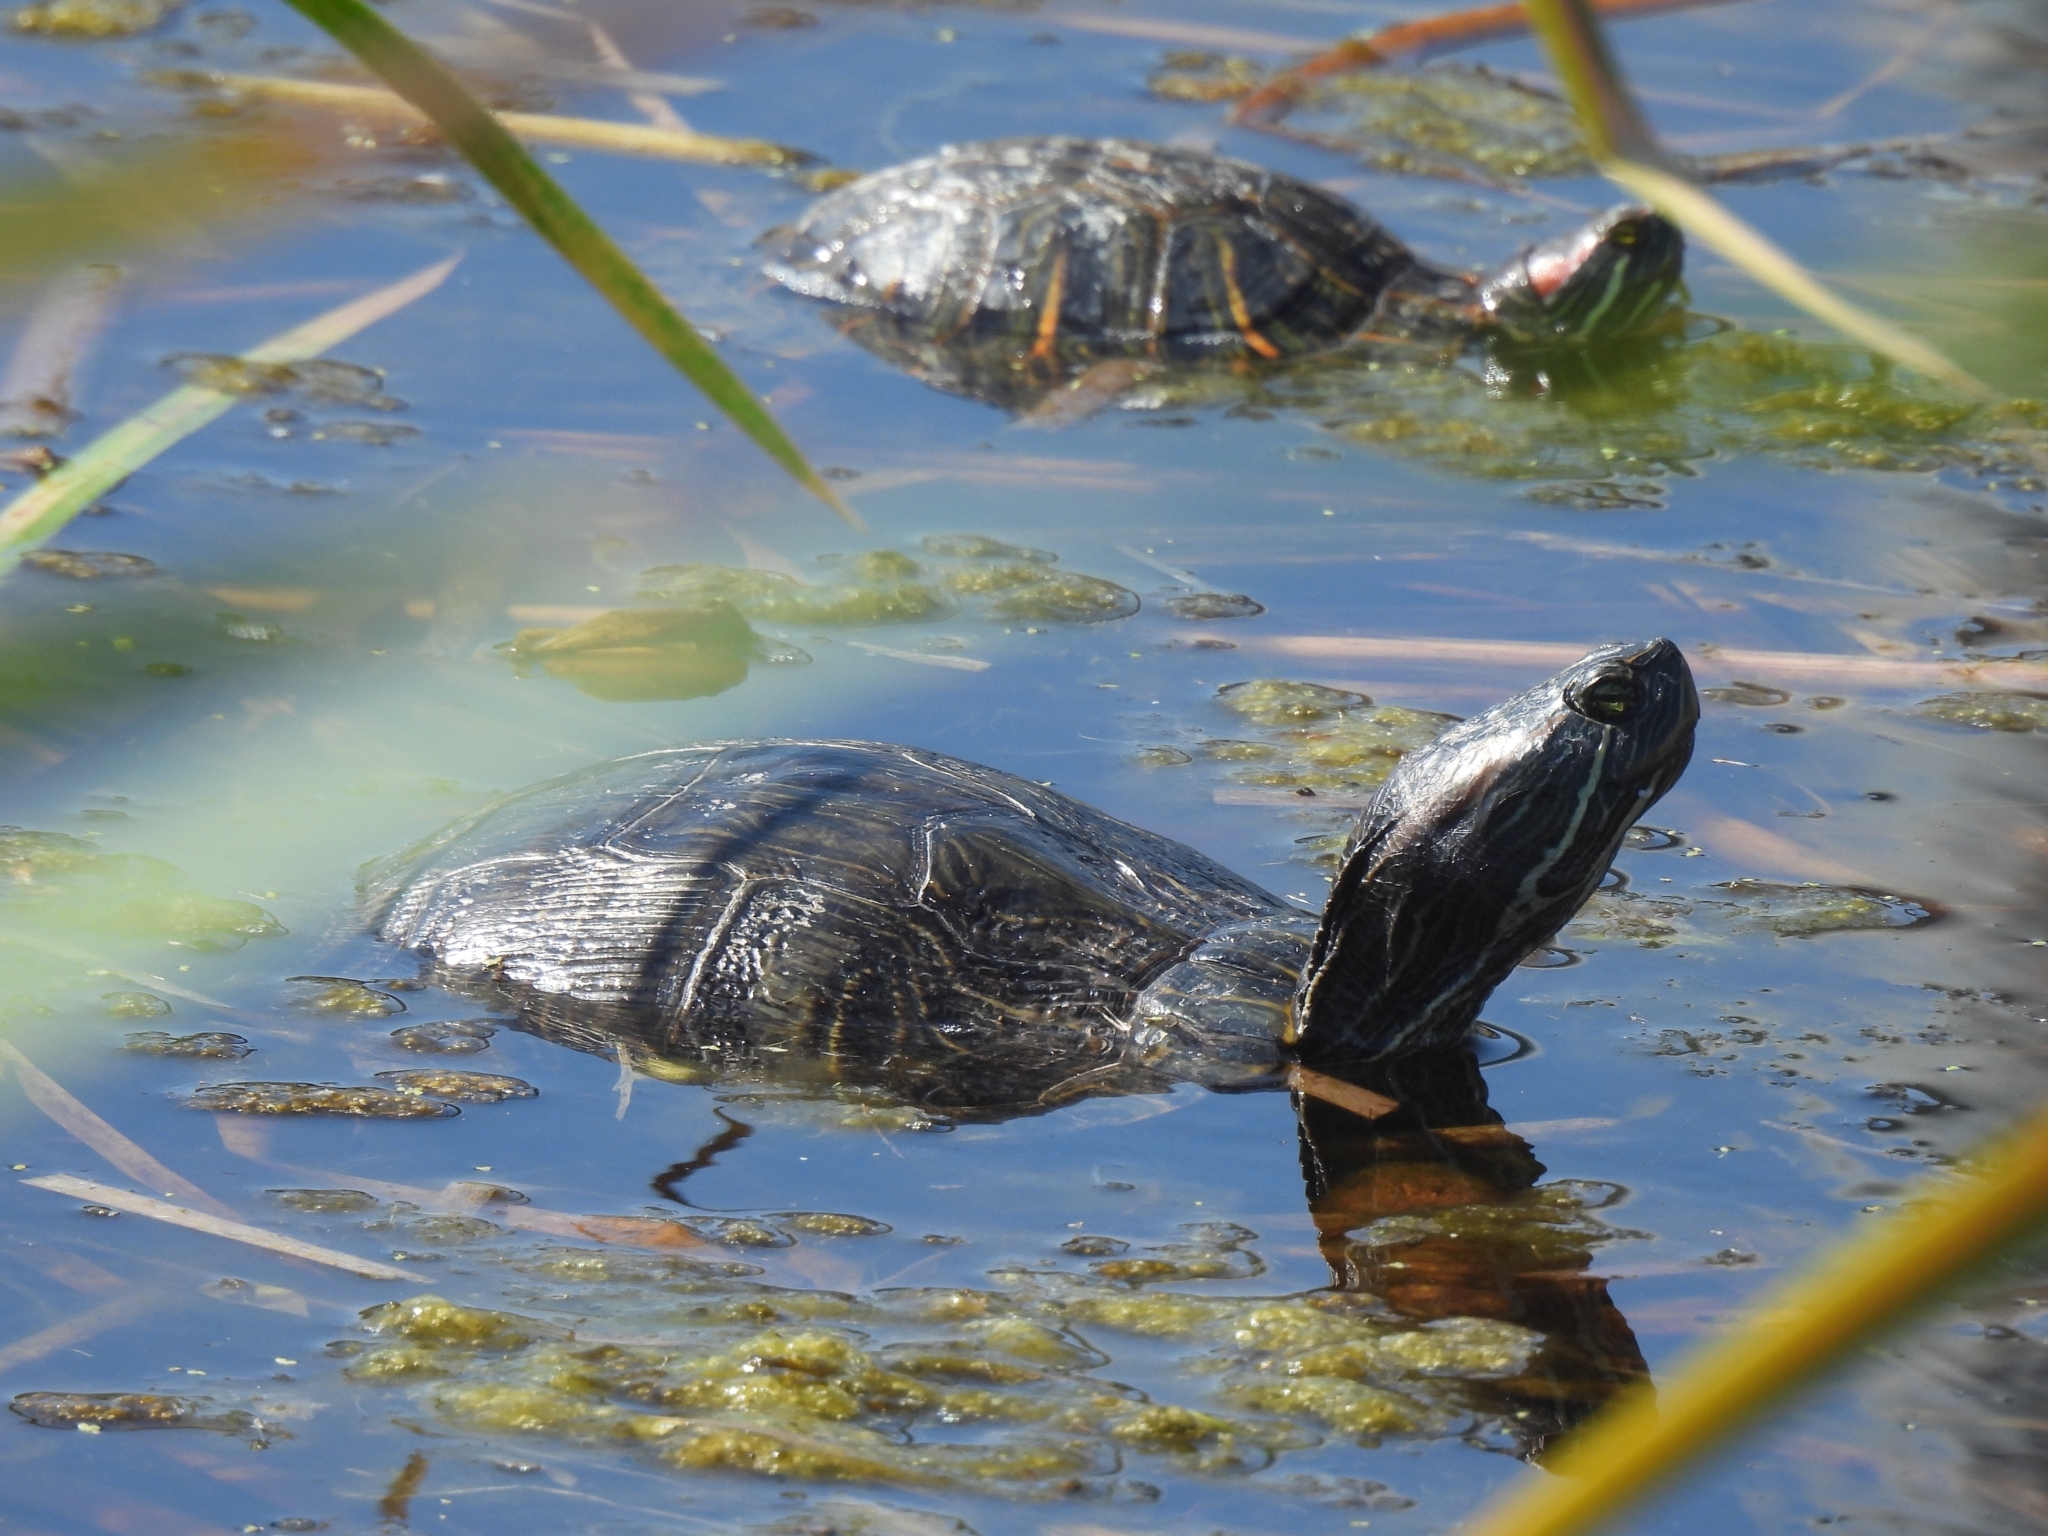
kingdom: Animalia
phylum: Chordata
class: Testudines
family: Emydidae
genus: Trachemys
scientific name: Trachemys scripta
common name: Slider
